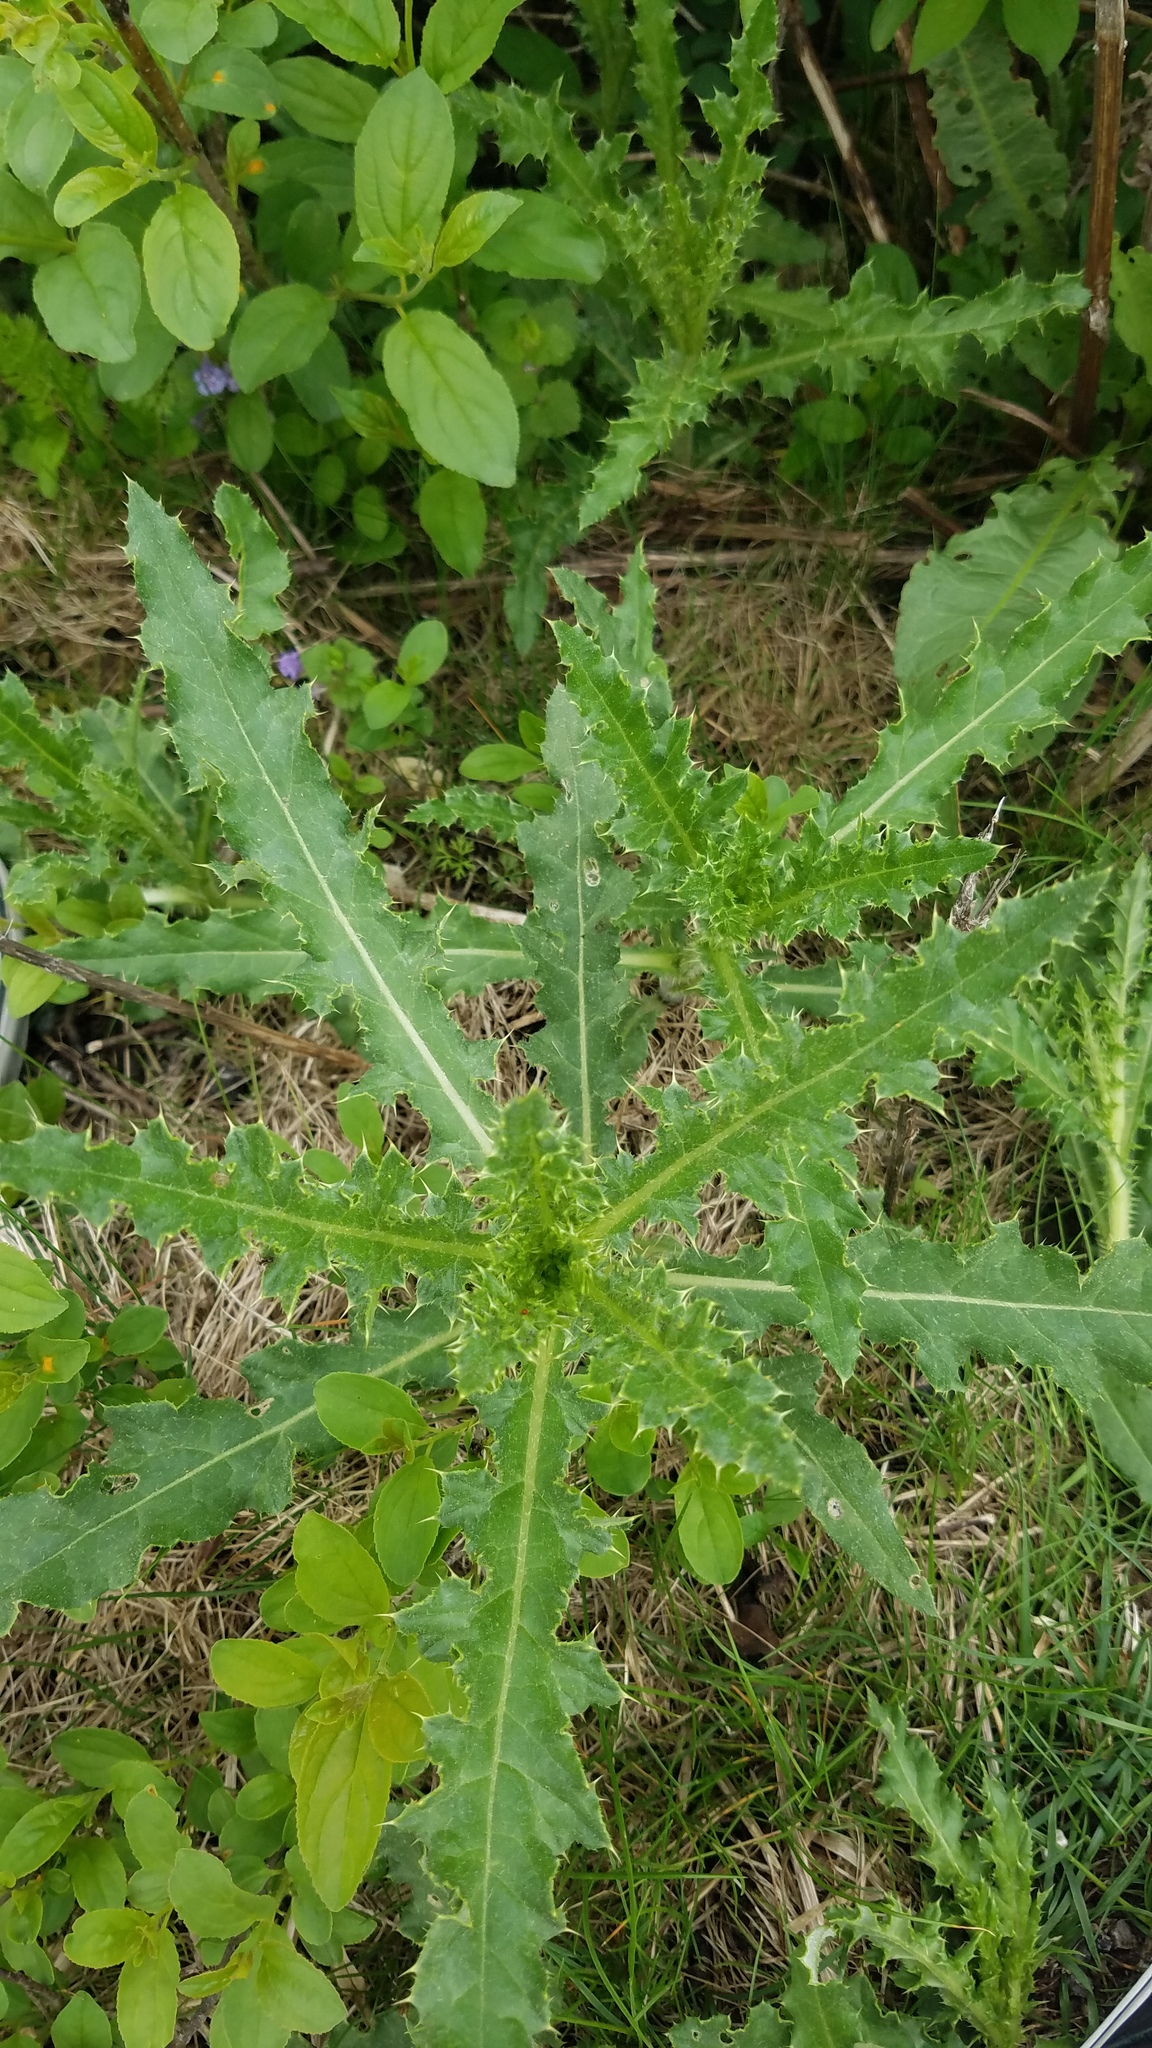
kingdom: Plantae
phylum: Tracheophyta
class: Magnoliopsida
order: Asterales
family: Asteraceae
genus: Cirsium
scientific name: Cirsium arvense
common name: Creeping thistle
